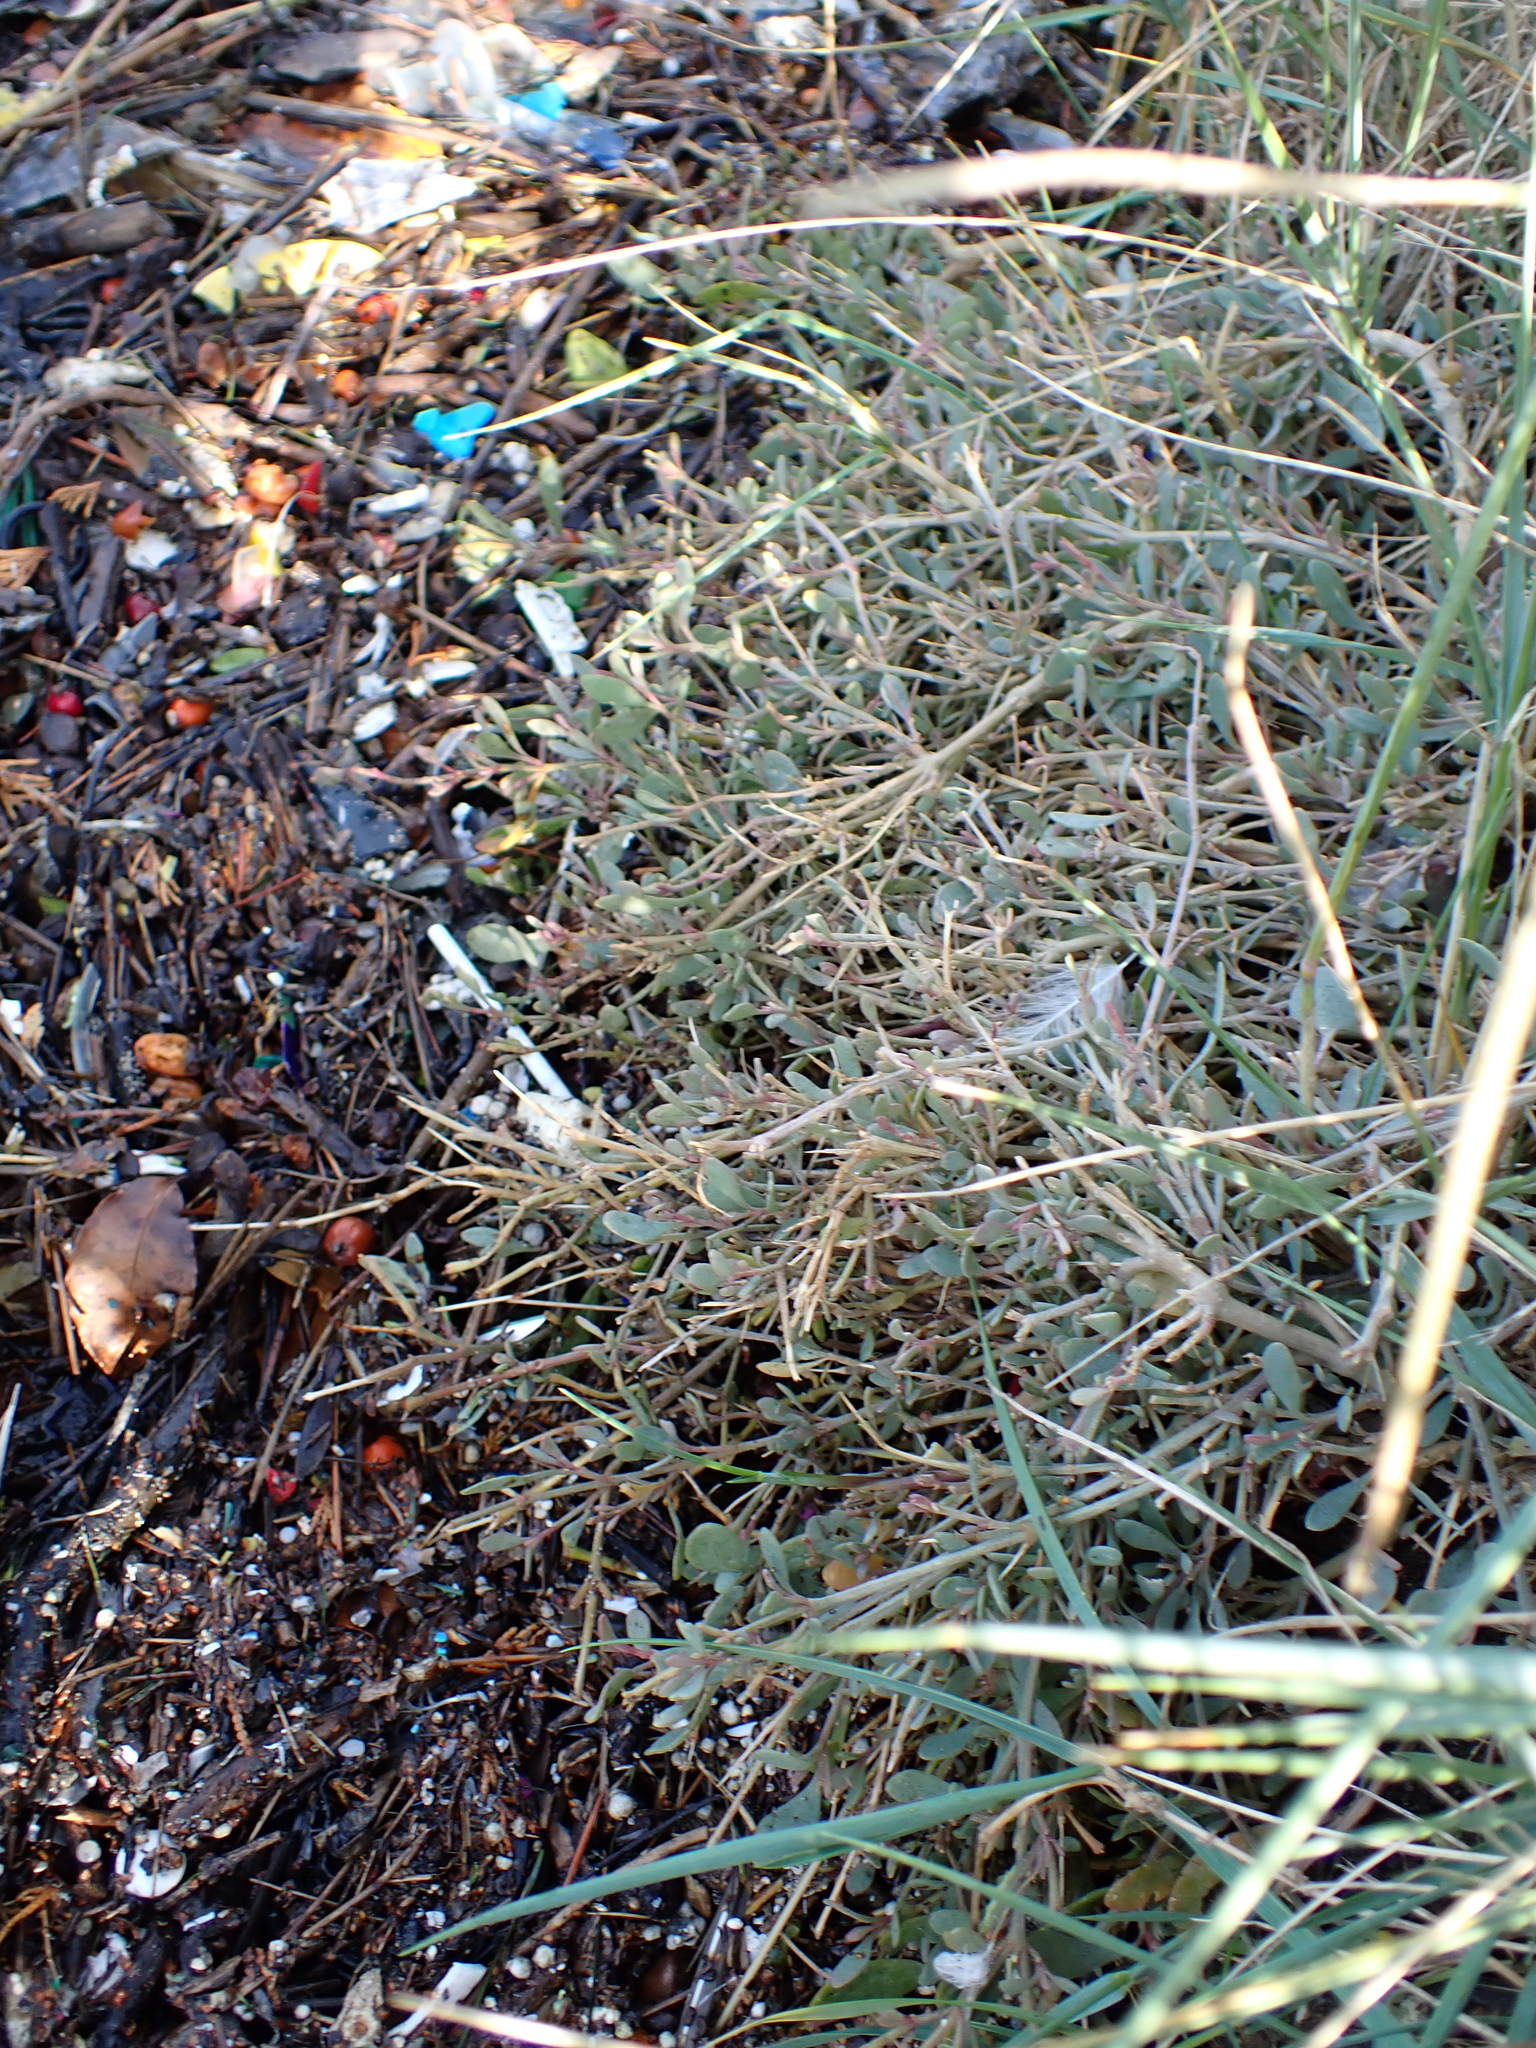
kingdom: Plantae
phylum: Tracheophyta
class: Magnoliopsida
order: Caryophyllales
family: Amaranthaceae
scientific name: Amaranthaceae
